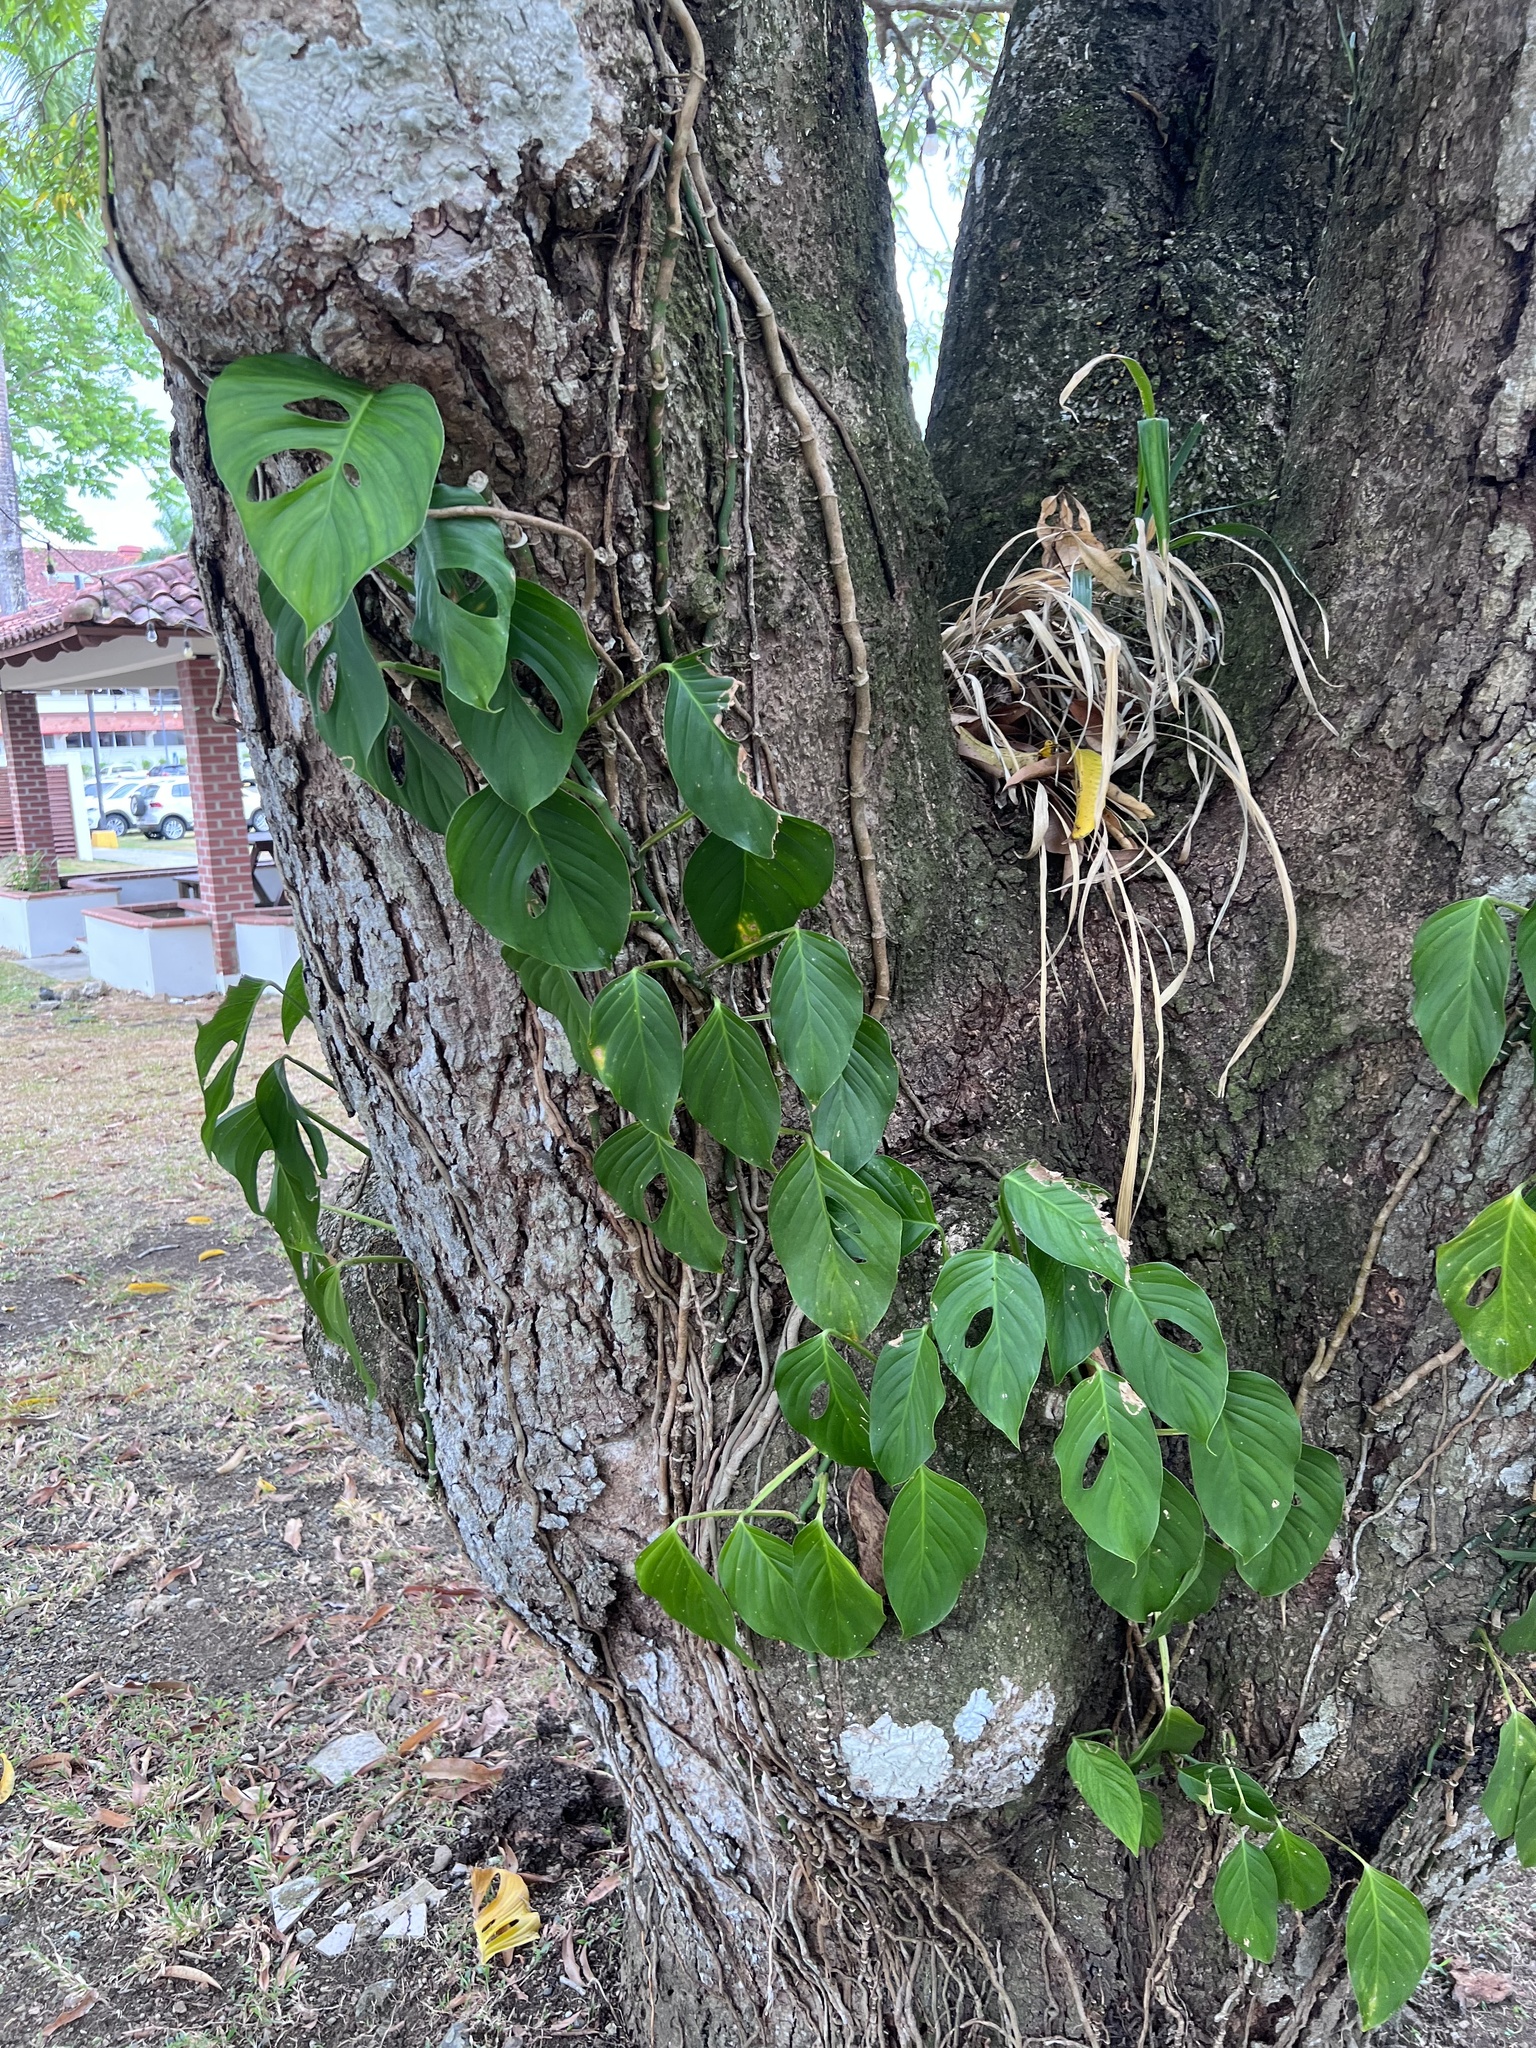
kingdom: Plantae
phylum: Tracheophyta
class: Liliopsida
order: Alismatales
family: Araceae
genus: Monstera
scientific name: Monstera adansonii
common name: Tarovine
